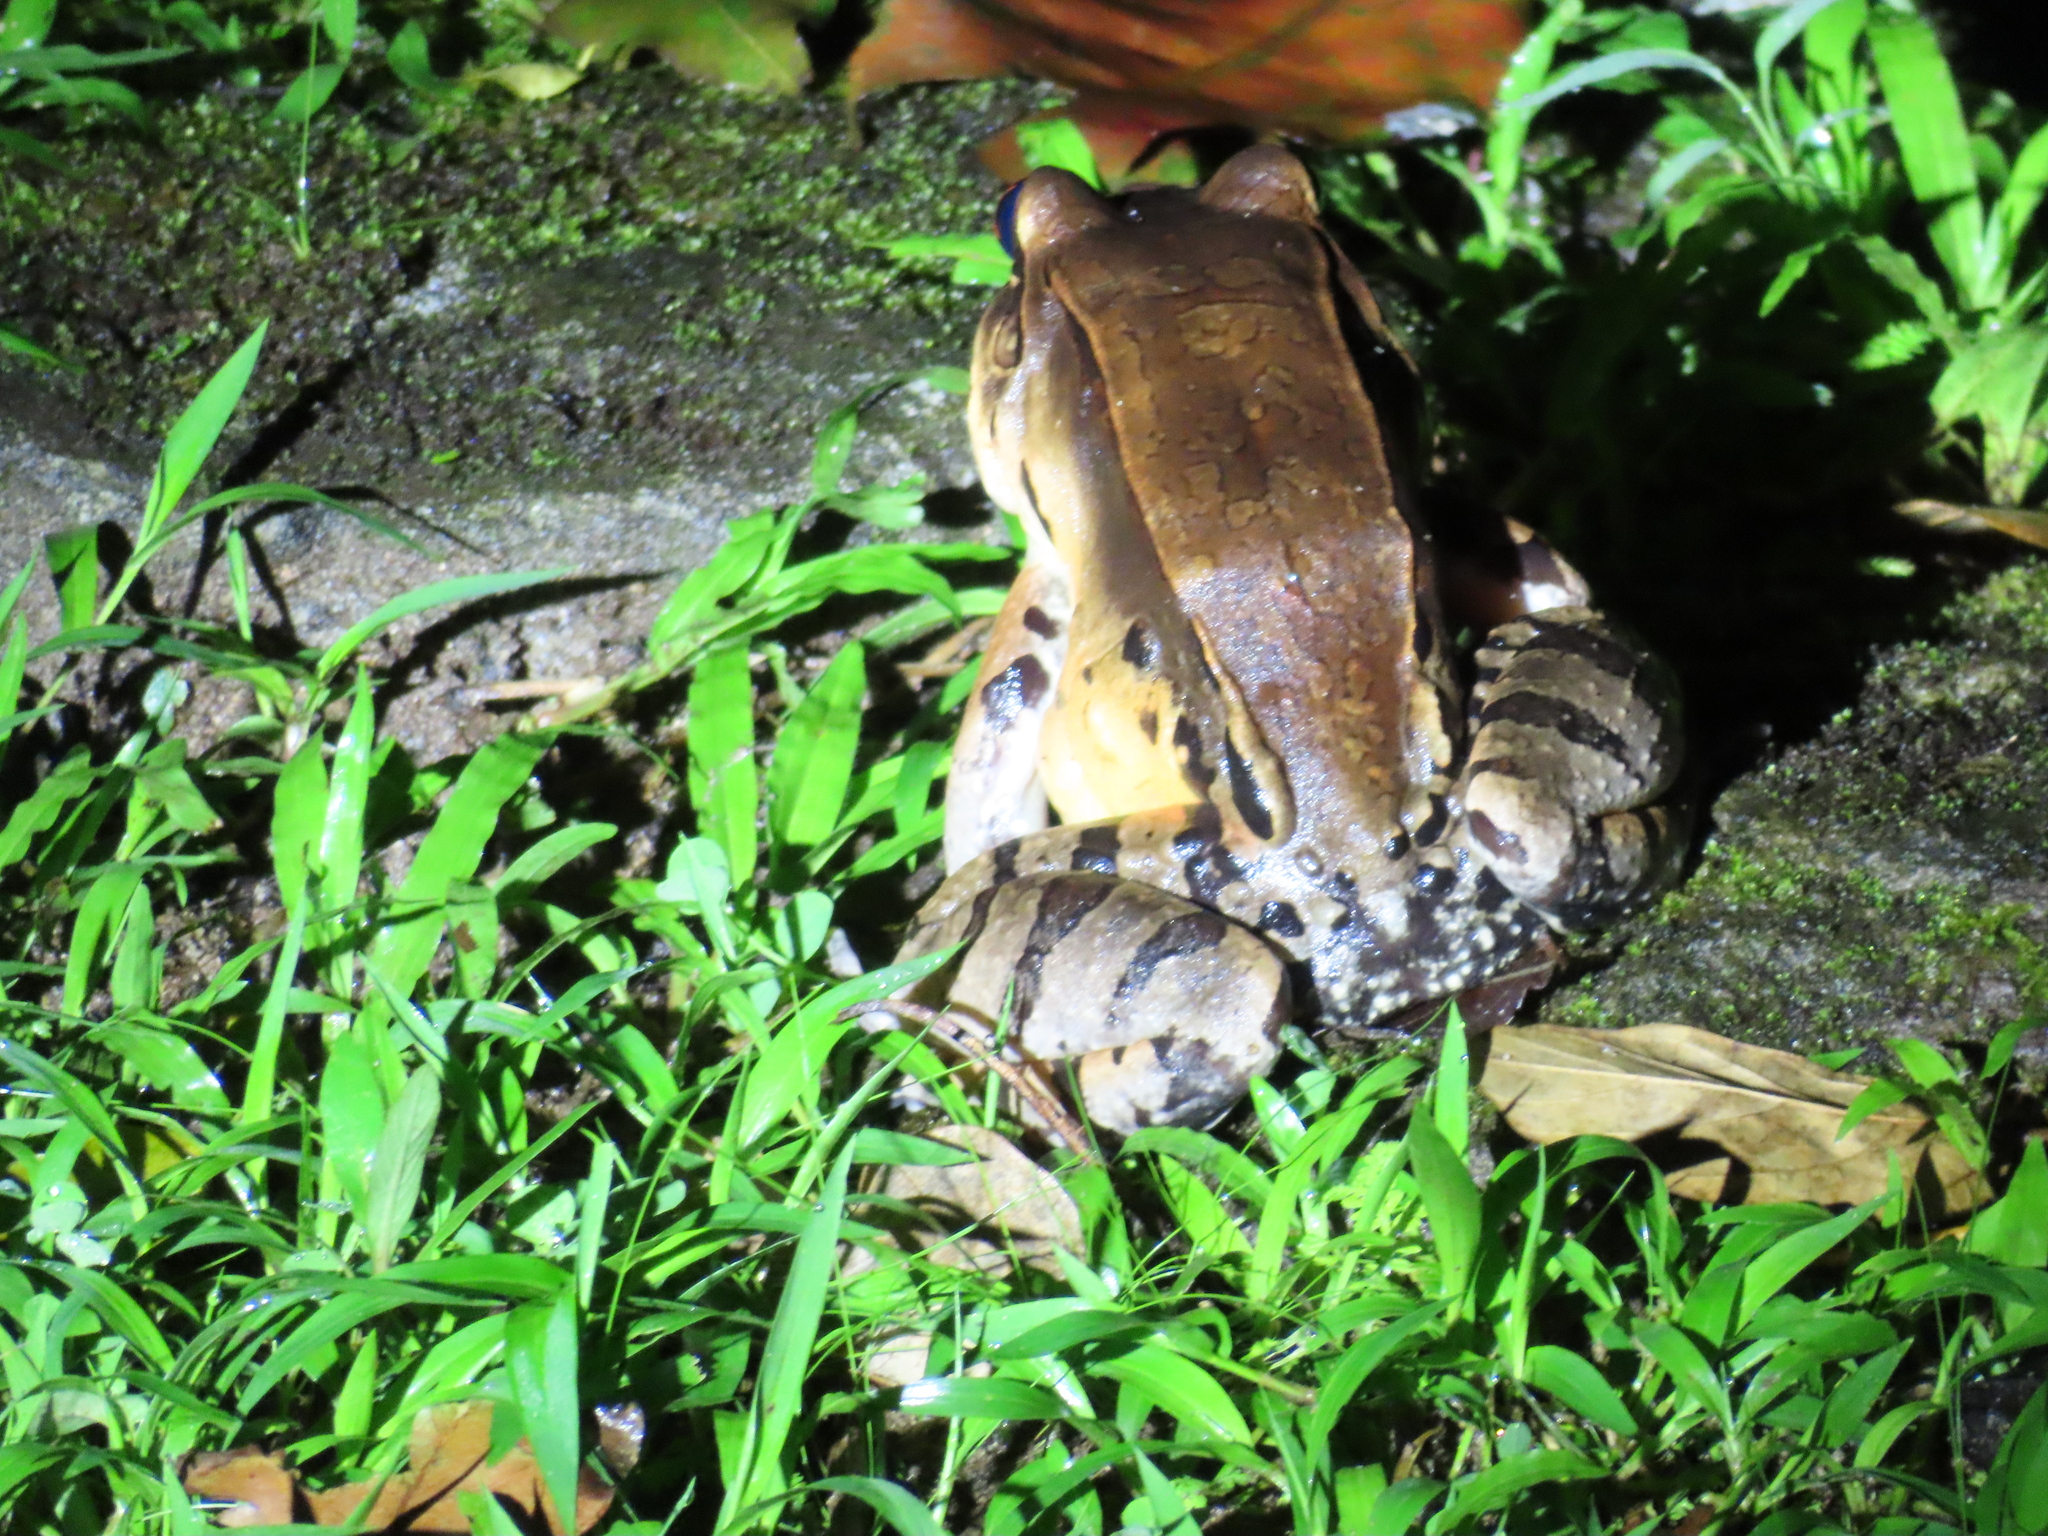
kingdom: Animalia
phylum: Chordata
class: Amphibia
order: Anura
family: Leptodactylidae
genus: Leptodactylus
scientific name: Leptodactylus savagei
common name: Savage's thin-toed frog
